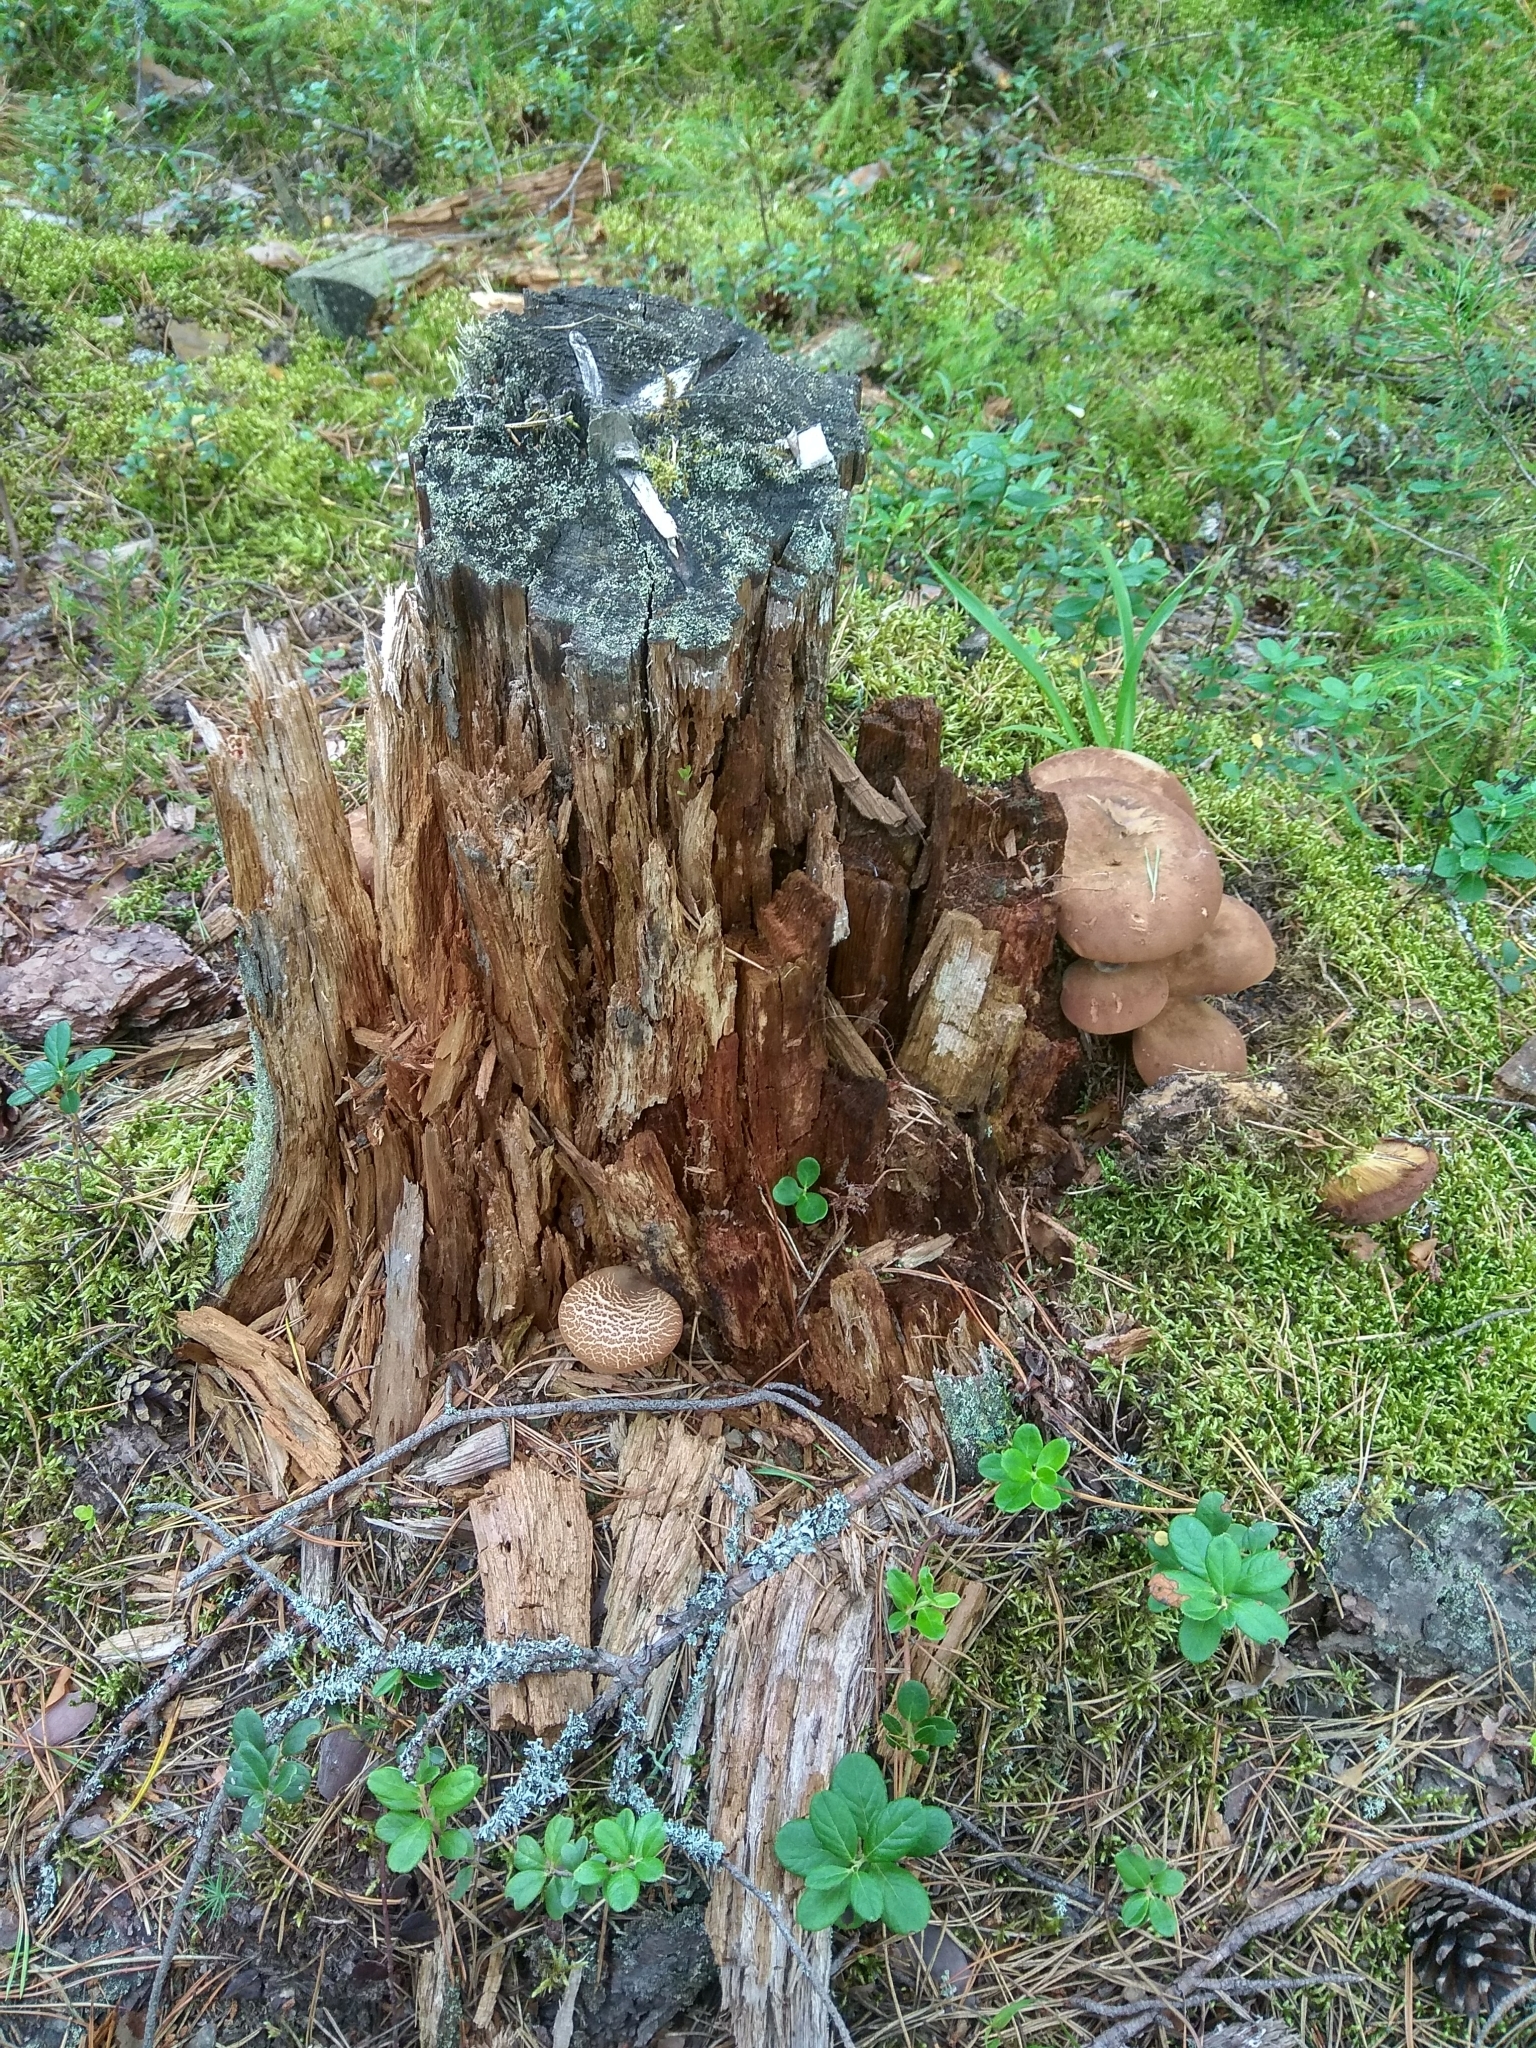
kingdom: Fungi
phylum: Basidiomycota
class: Agaricomycetes
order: Boletales
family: Tapinellaceae
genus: Tapinella
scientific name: Tapinella atrotomentosa
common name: Velvet rollrim
